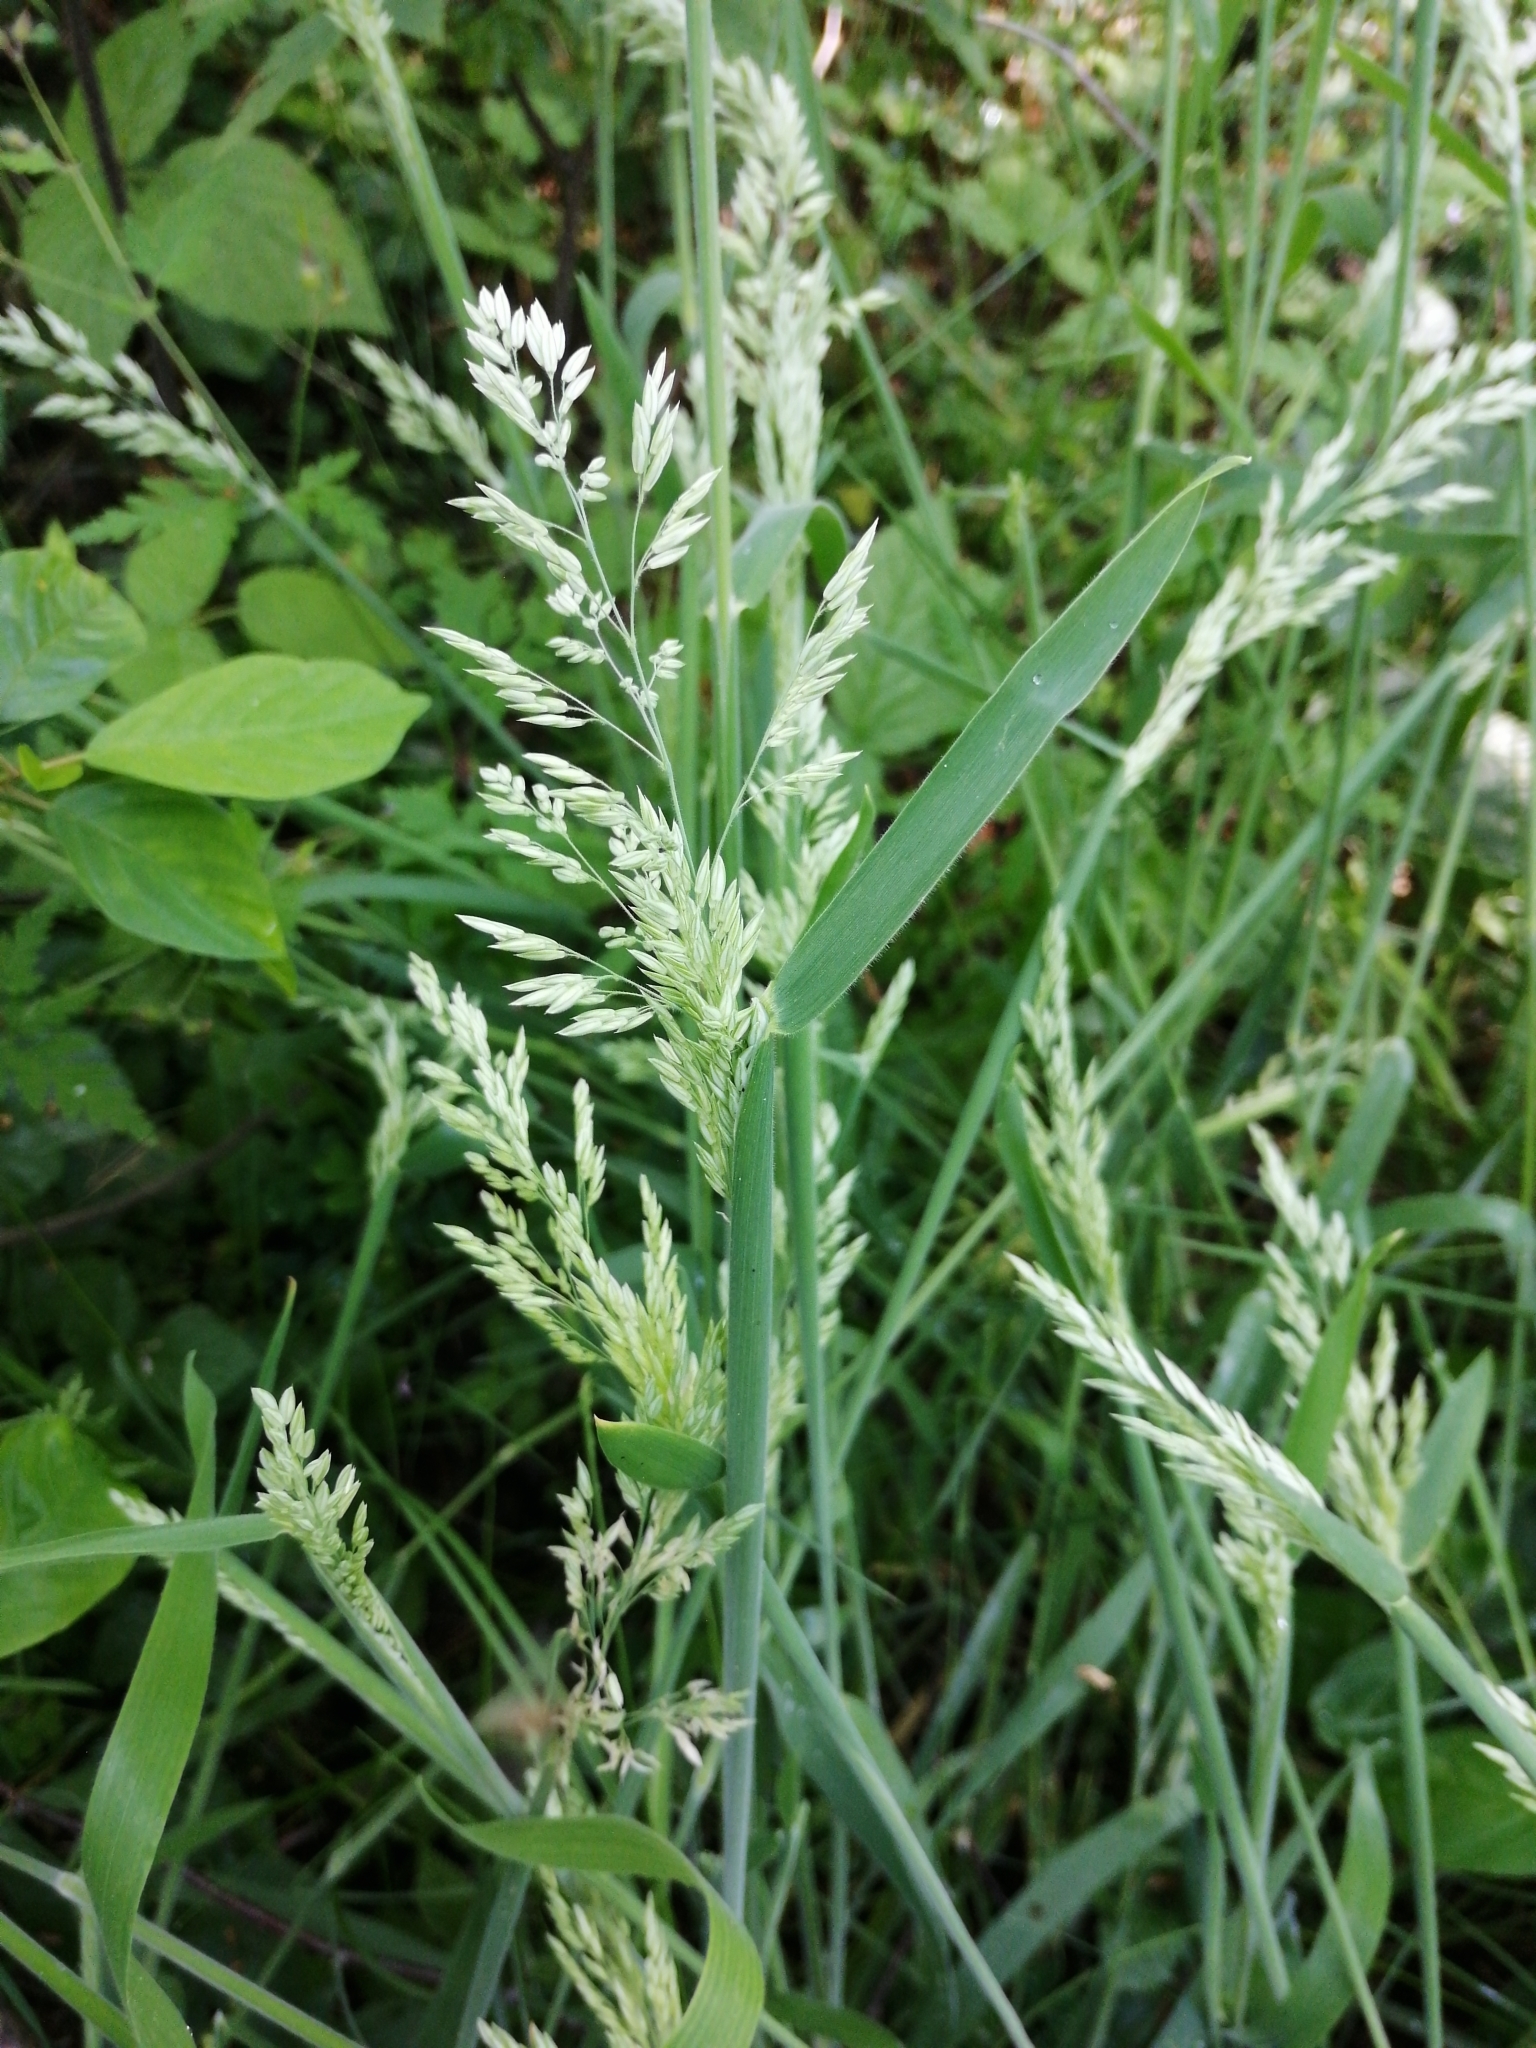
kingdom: Plantae
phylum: Tracheophyta
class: Liliopsida
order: Poales
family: Poaceae
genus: Holcus
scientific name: Holcus lanatus
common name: Yorkshire-fog
